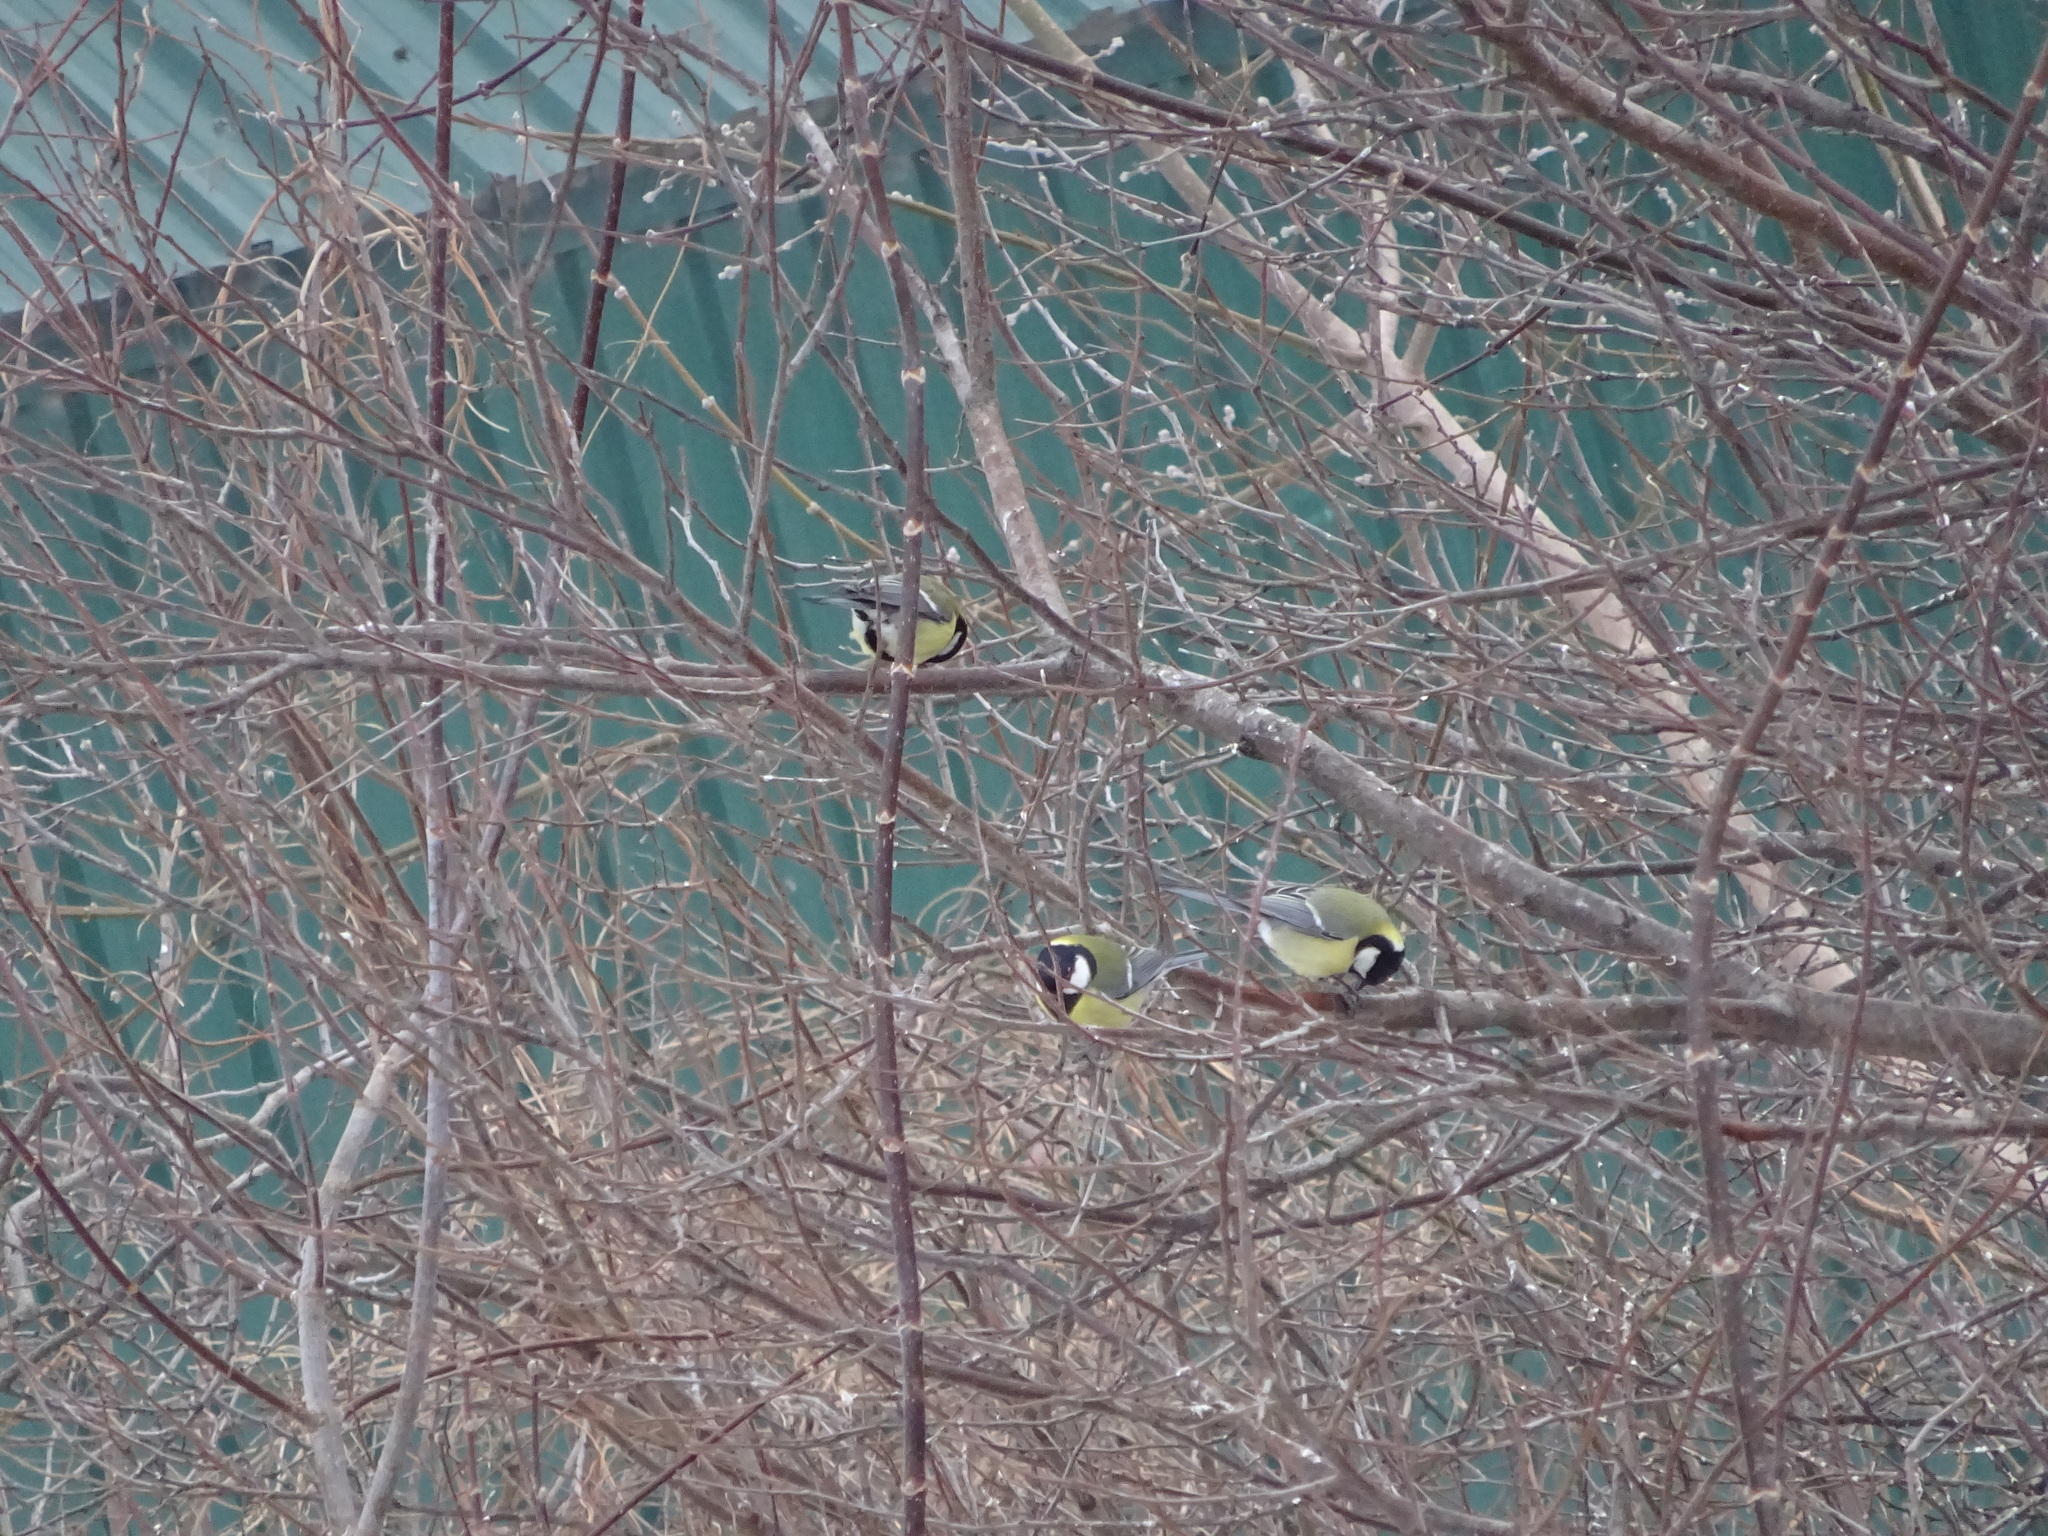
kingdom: Animalia
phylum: Chordata
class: Aves
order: Passeriformes
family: Paridae
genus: Parus
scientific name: Parus major
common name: Great tit
